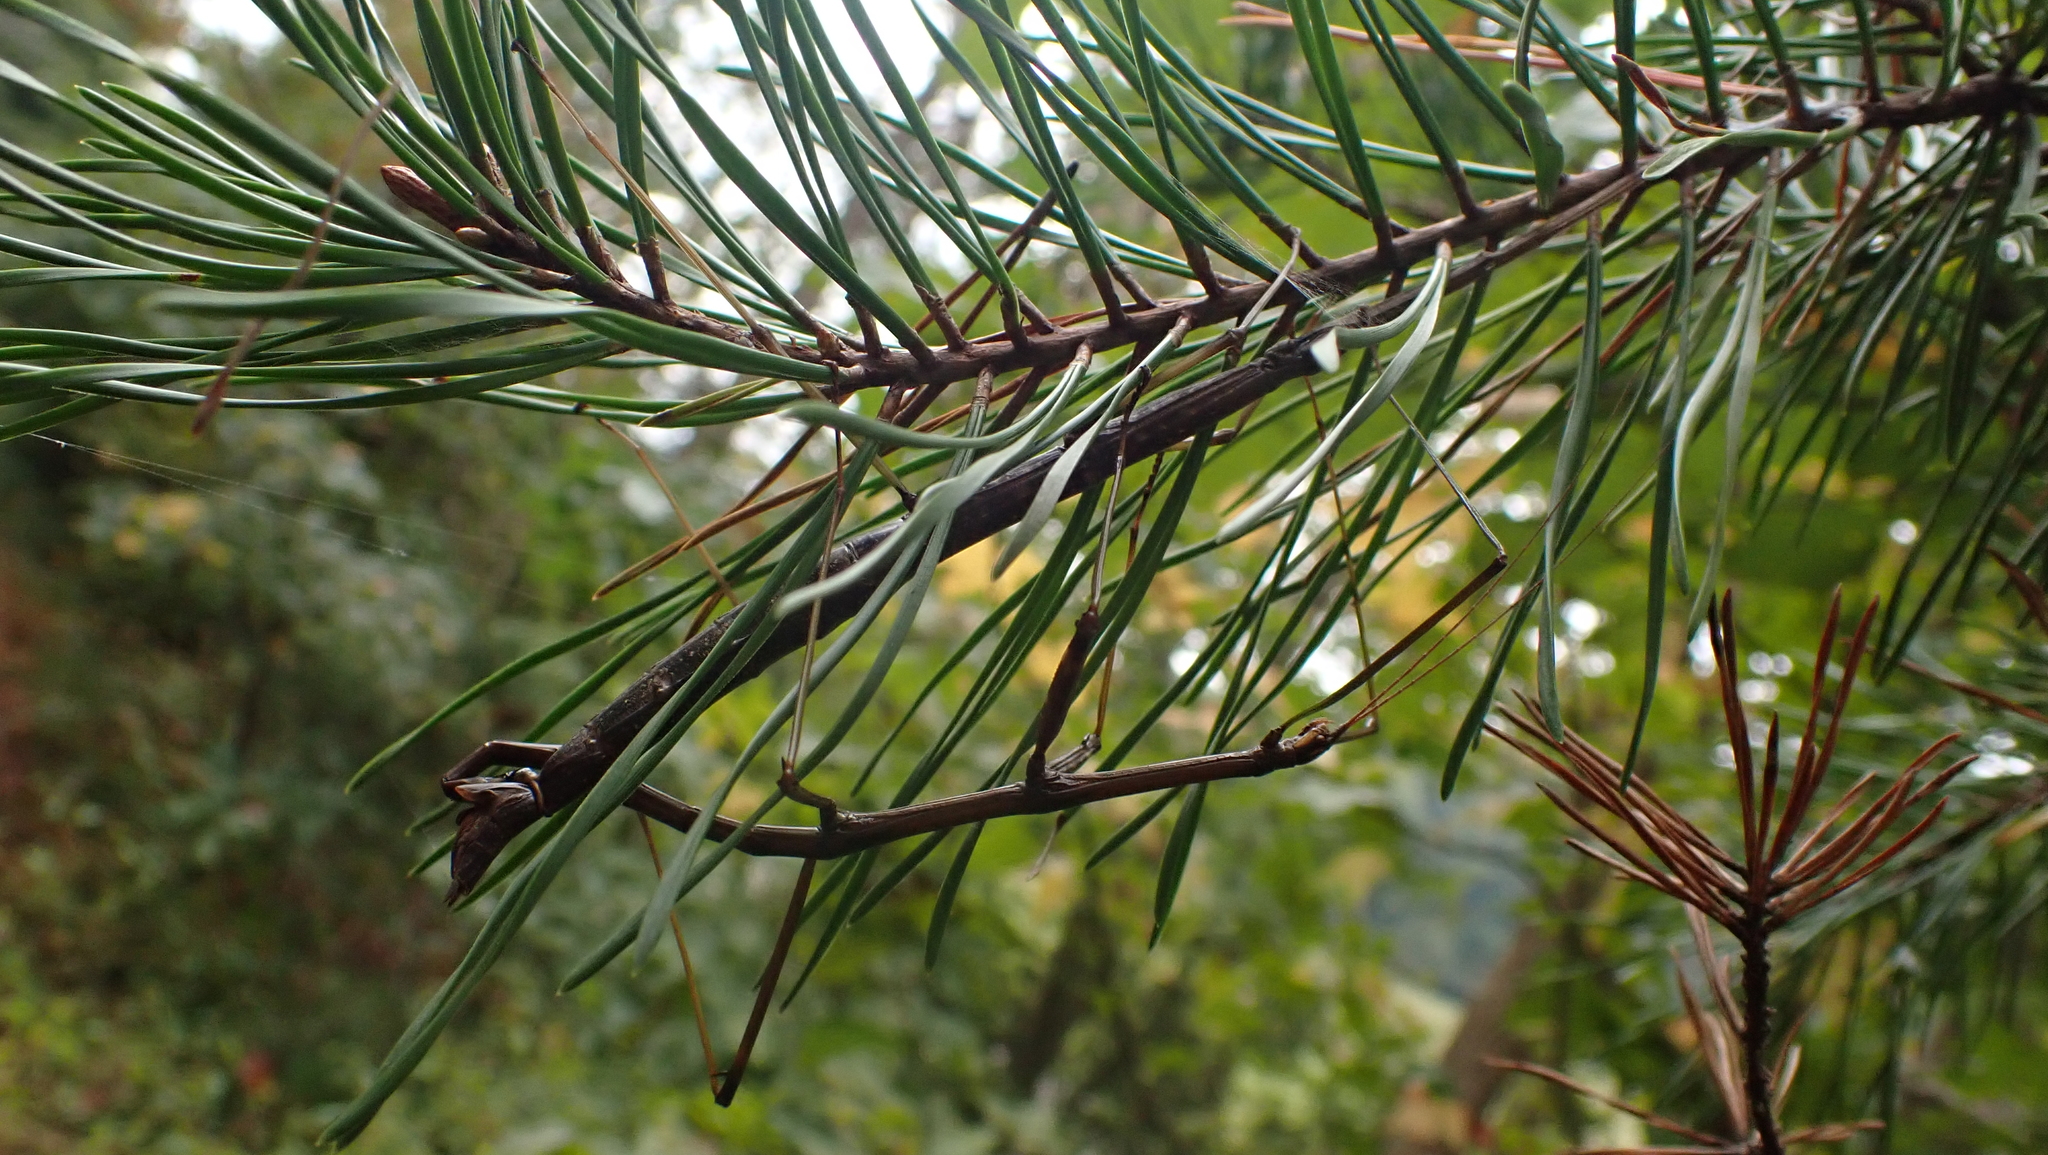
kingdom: Animalia
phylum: Arthropoda
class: Insecta
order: Phasmida
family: Diapheromeridae
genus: Diapheromera
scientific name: Diapheromera femorata
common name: Common american walkingstick
